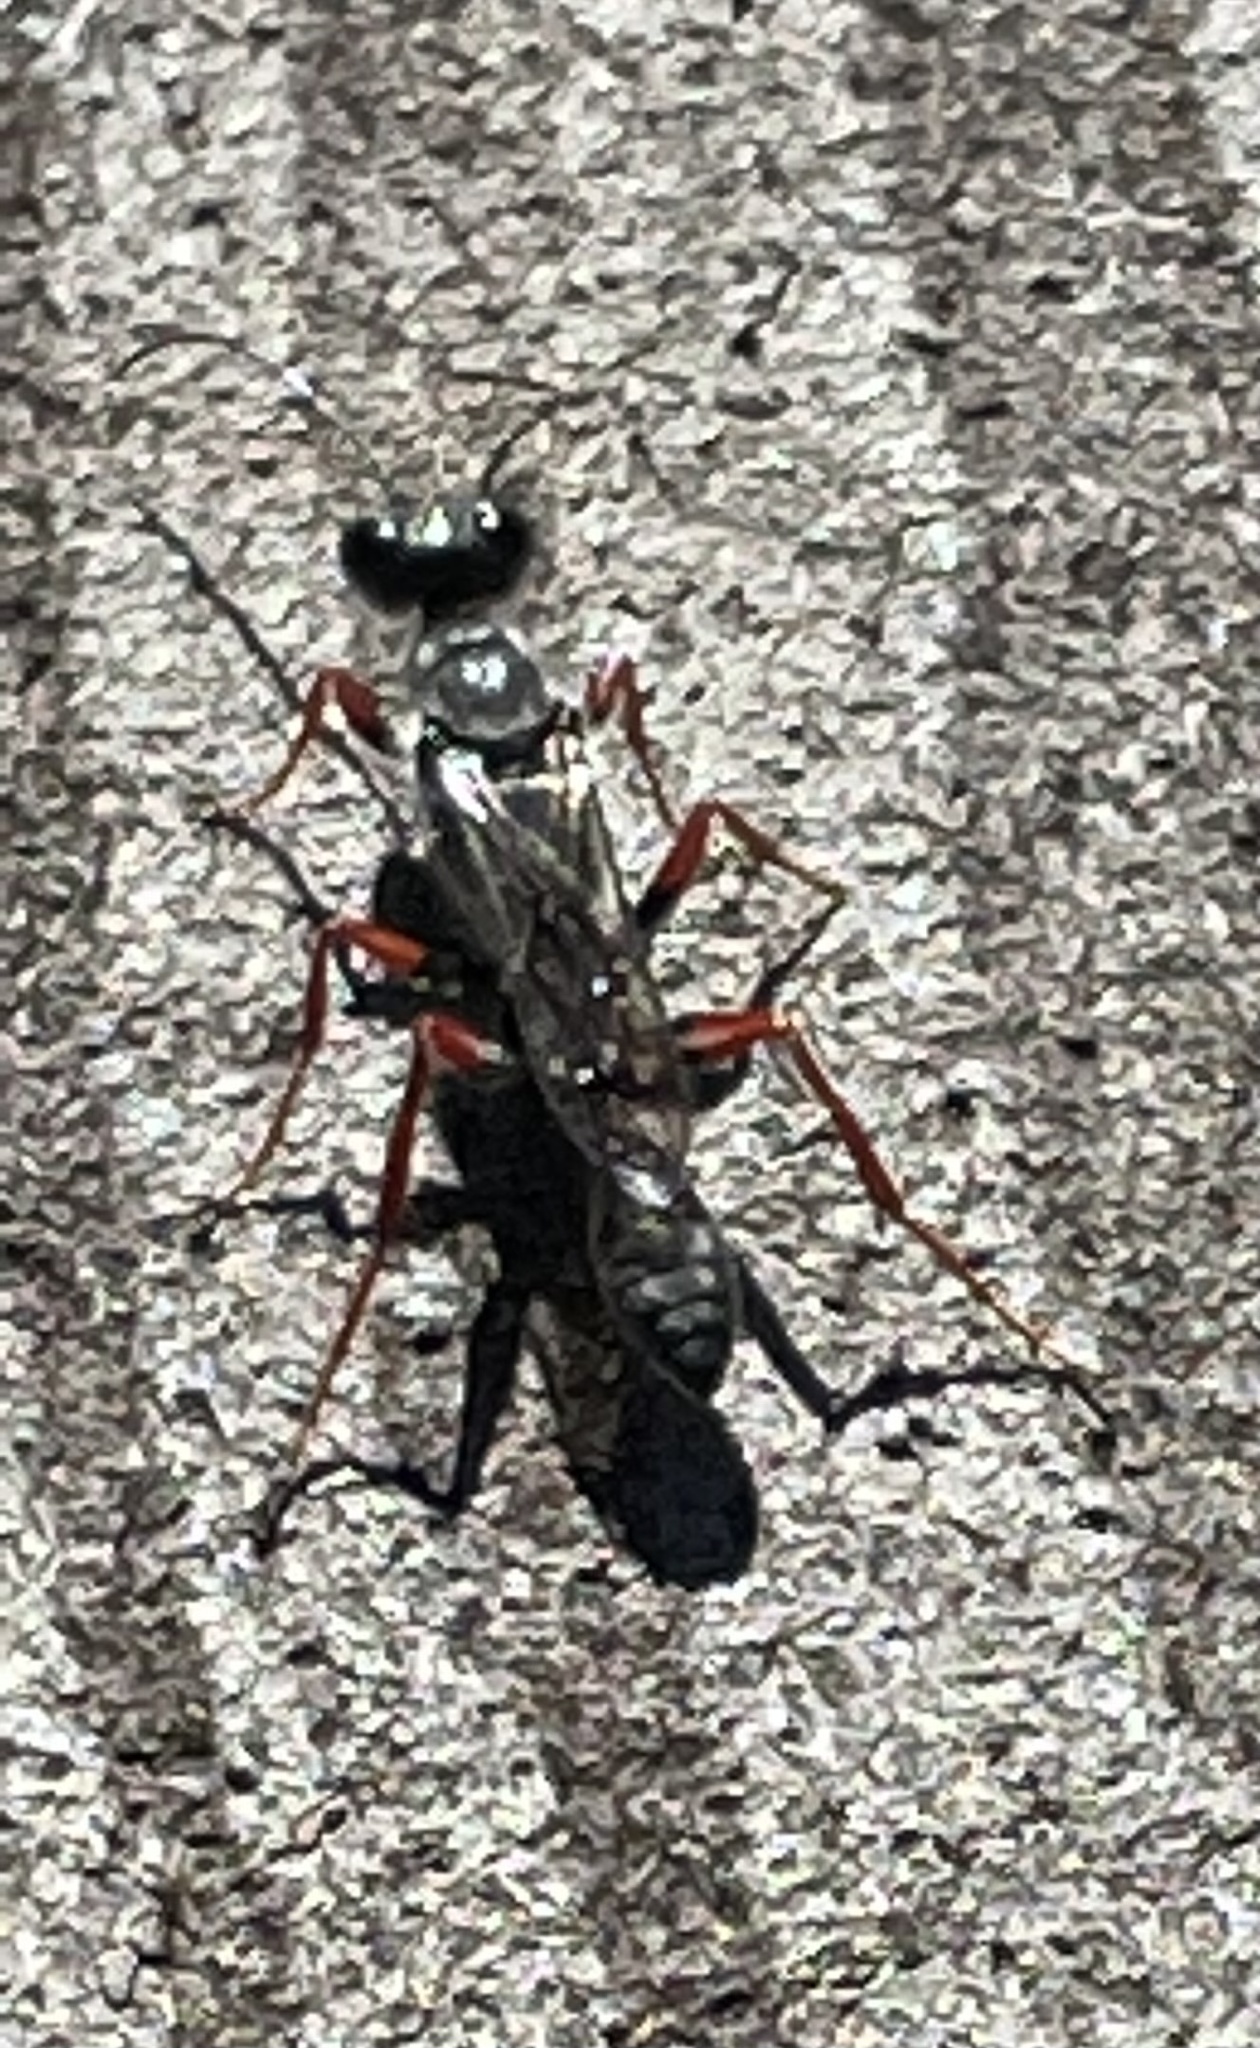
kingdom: Animalia
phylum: Arthropoda
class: Insecta
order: Hymenoptera
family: Sphecidae
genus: Podium
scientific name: Podium rufipes
